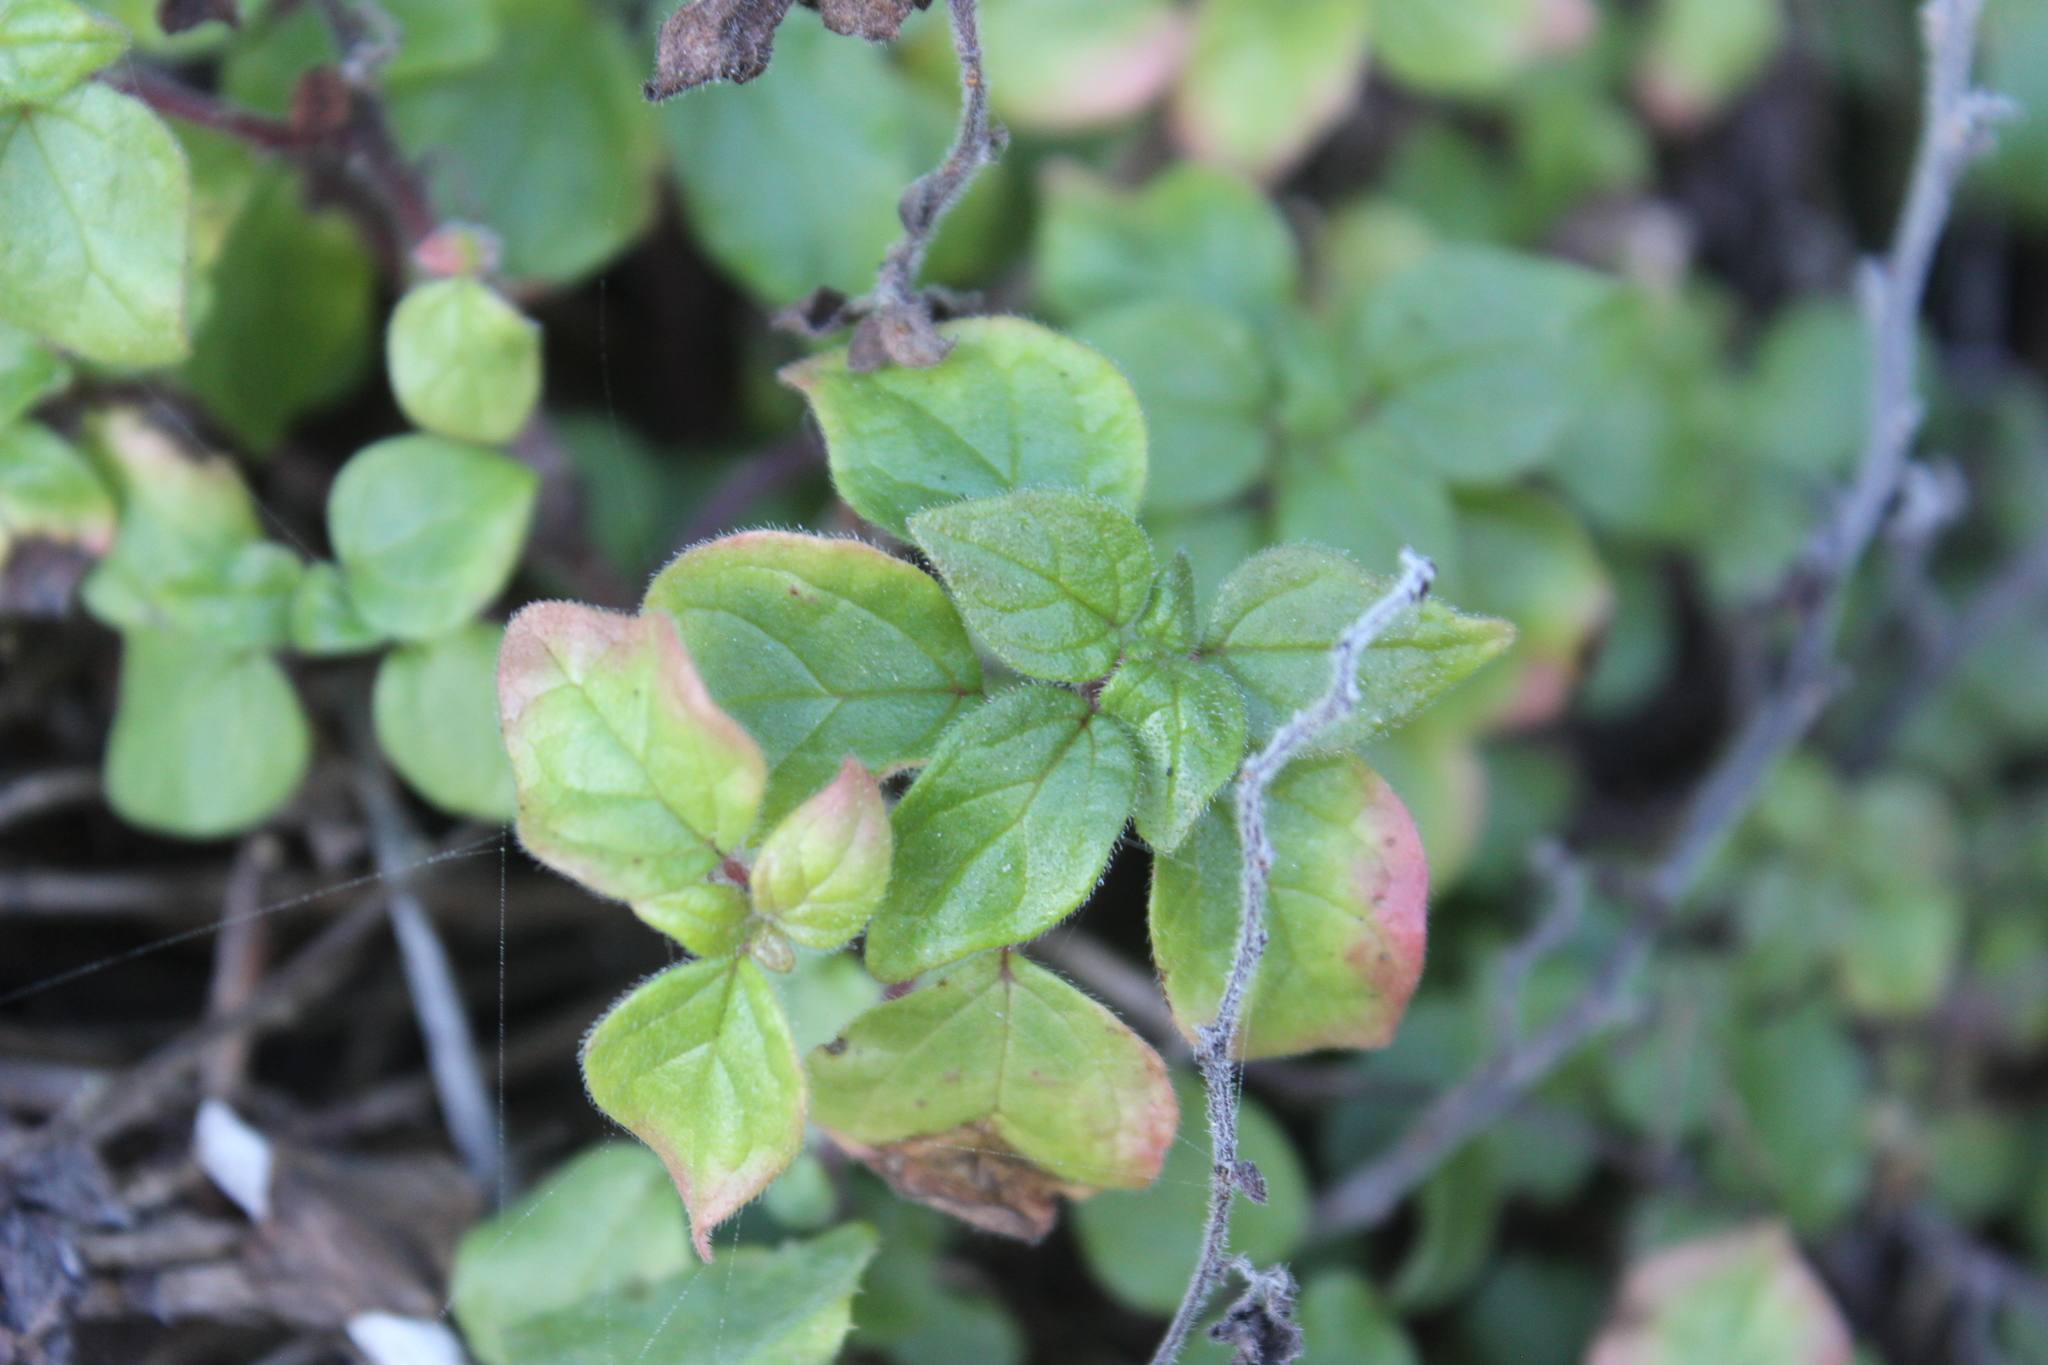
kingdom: Plantae
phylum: Tracheophyta
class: Magnoliopsida
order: Rosales
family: Urticaceae
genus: Parietaria
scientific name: Parietaria judaica
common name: Pellitory-of-the-wall
